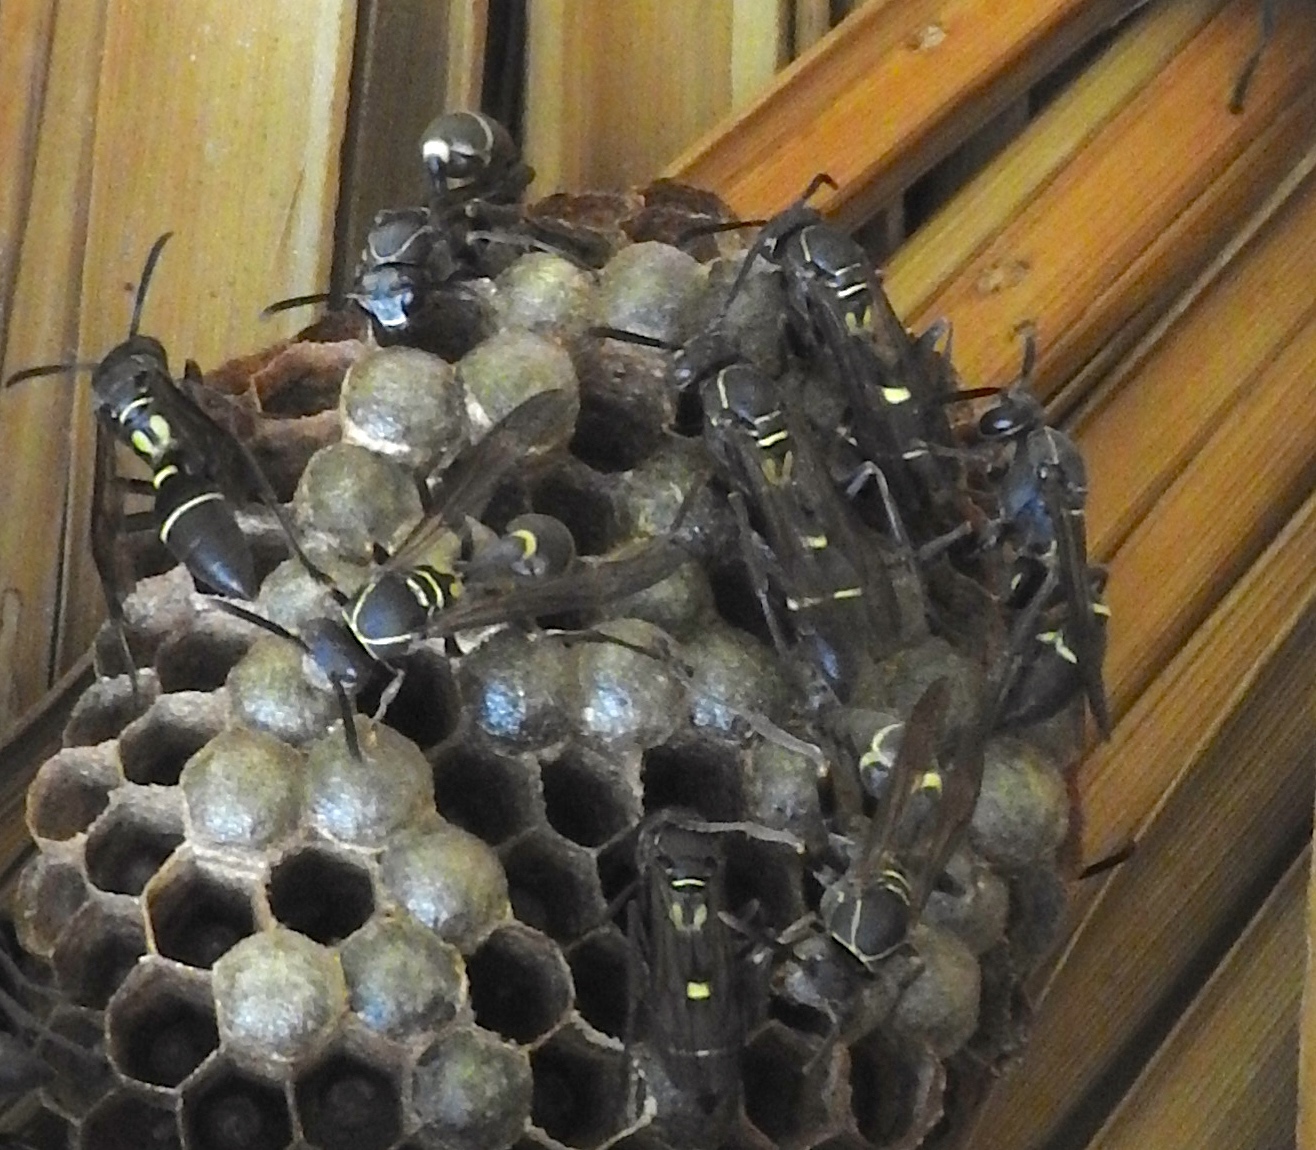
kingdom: Animalia
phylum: Arthropoda
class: Insecta
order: Hymenoptera
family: Vespidae
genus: Mischocyttarus
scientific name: Mischocyttarus
